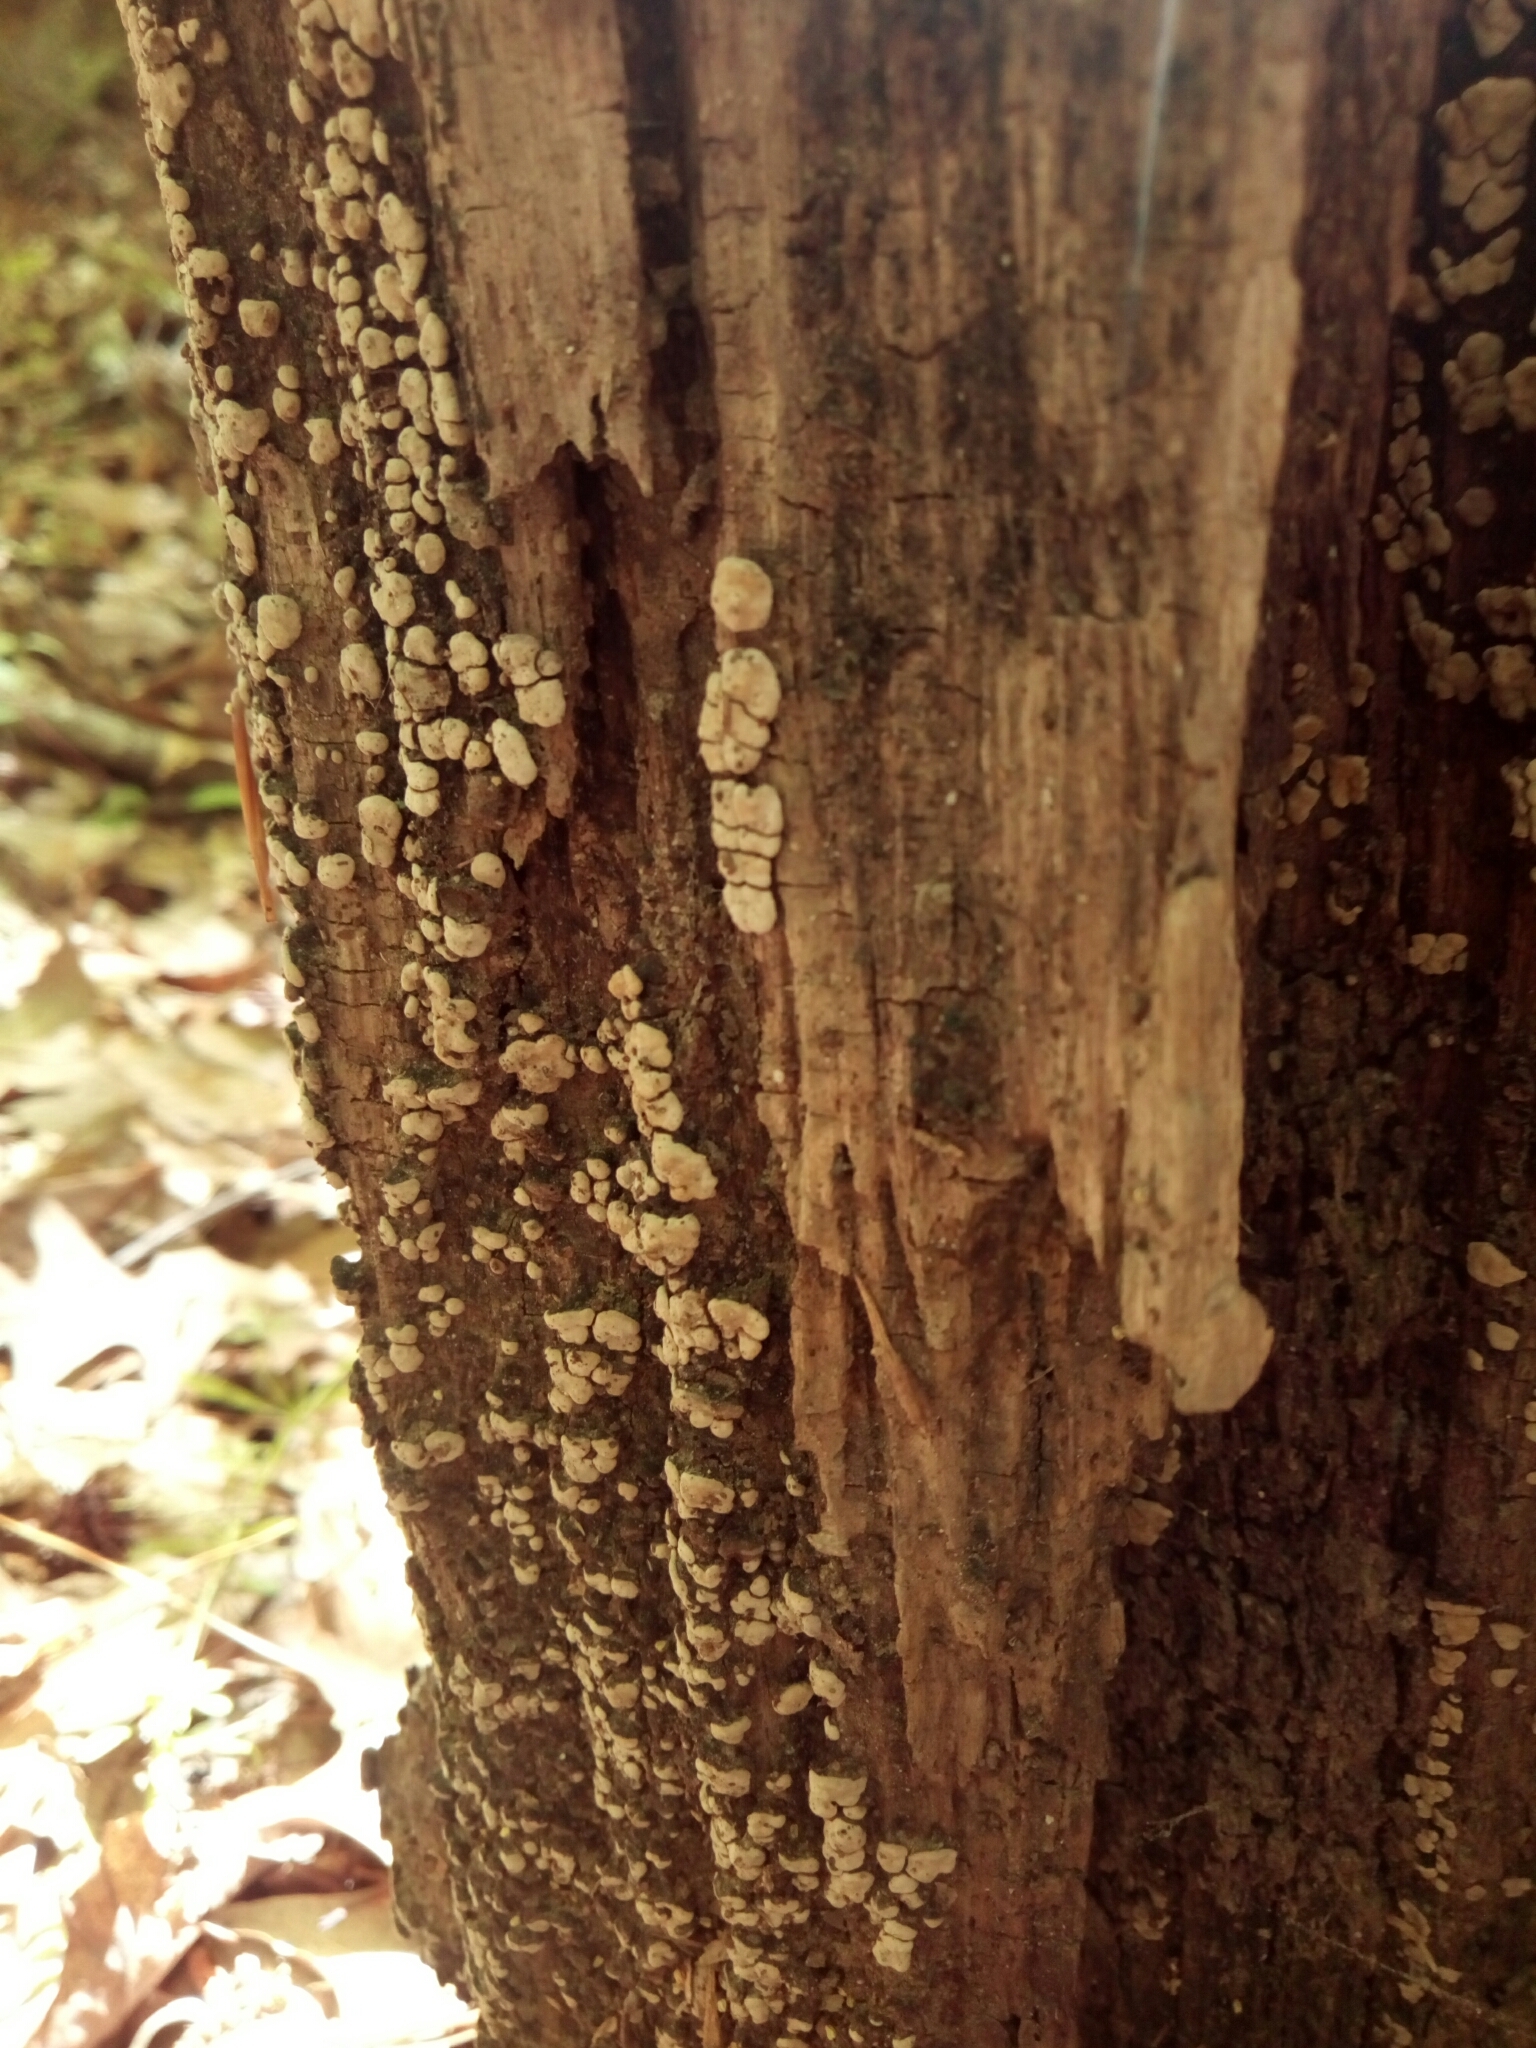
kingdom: Fungi
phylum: Basidiomycota
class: Agaricomycetes
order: Russulales
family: Stereaceae
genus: Xylobolus
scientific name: Xylobolus frustulatus
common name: Ceramic parchment
